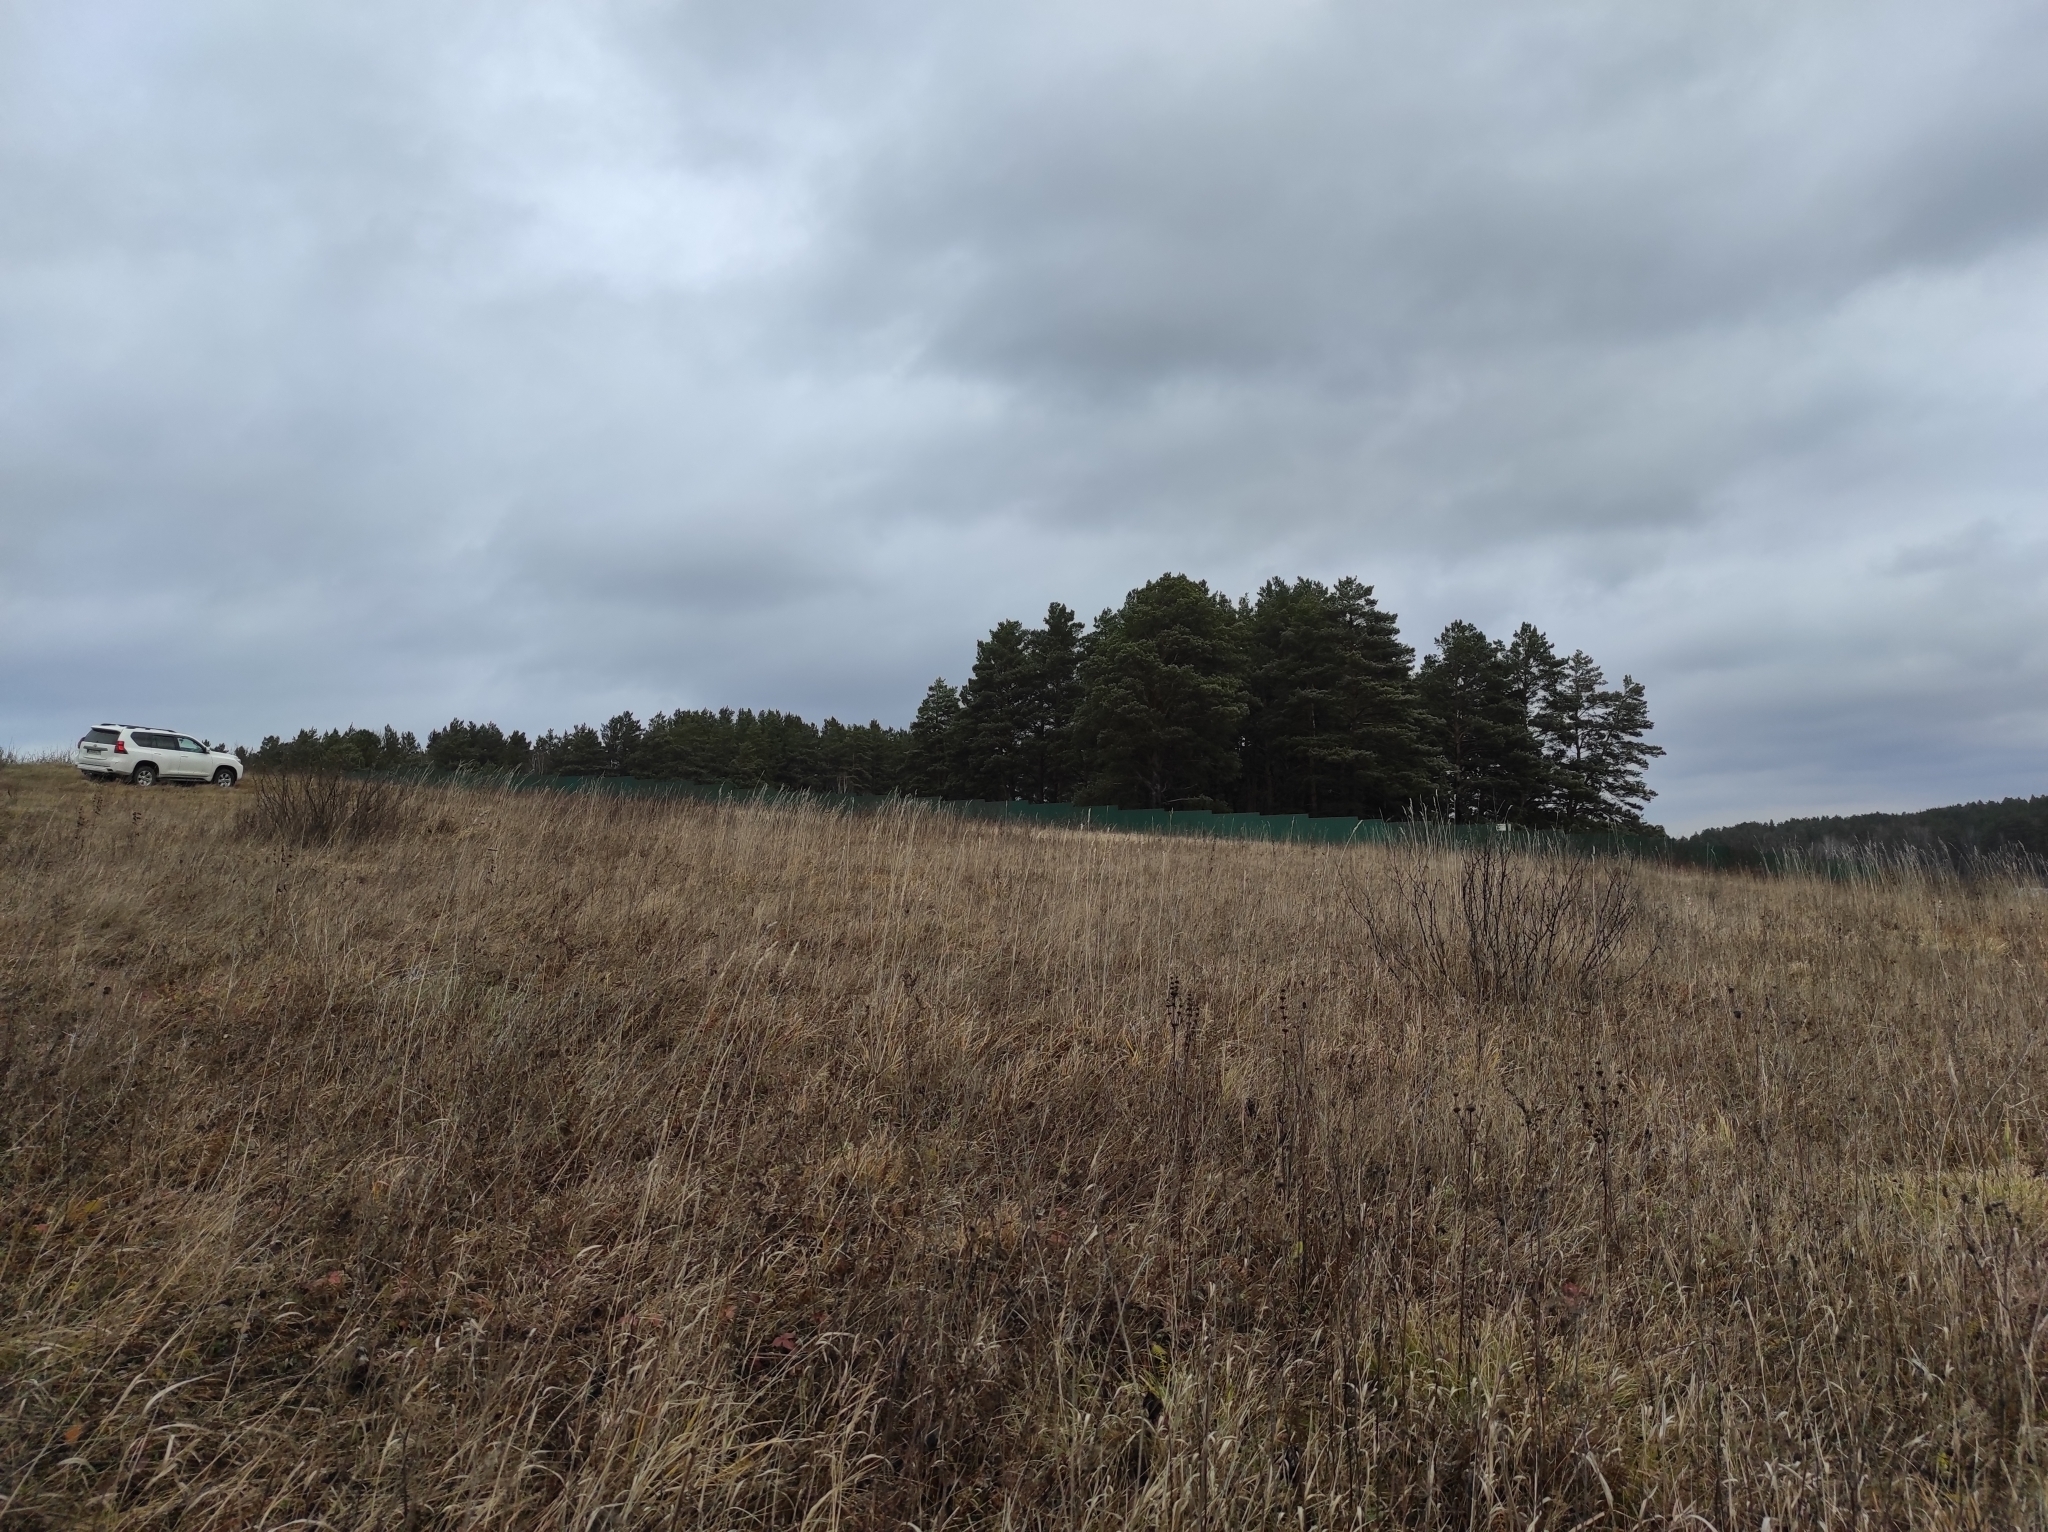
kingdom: Plantae
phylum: Tracheophyta
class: Magnoliopsida
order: Rosales
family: Rosaceae
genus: Filipendula
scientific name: Filipendula vulgaris
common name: Dropwort
